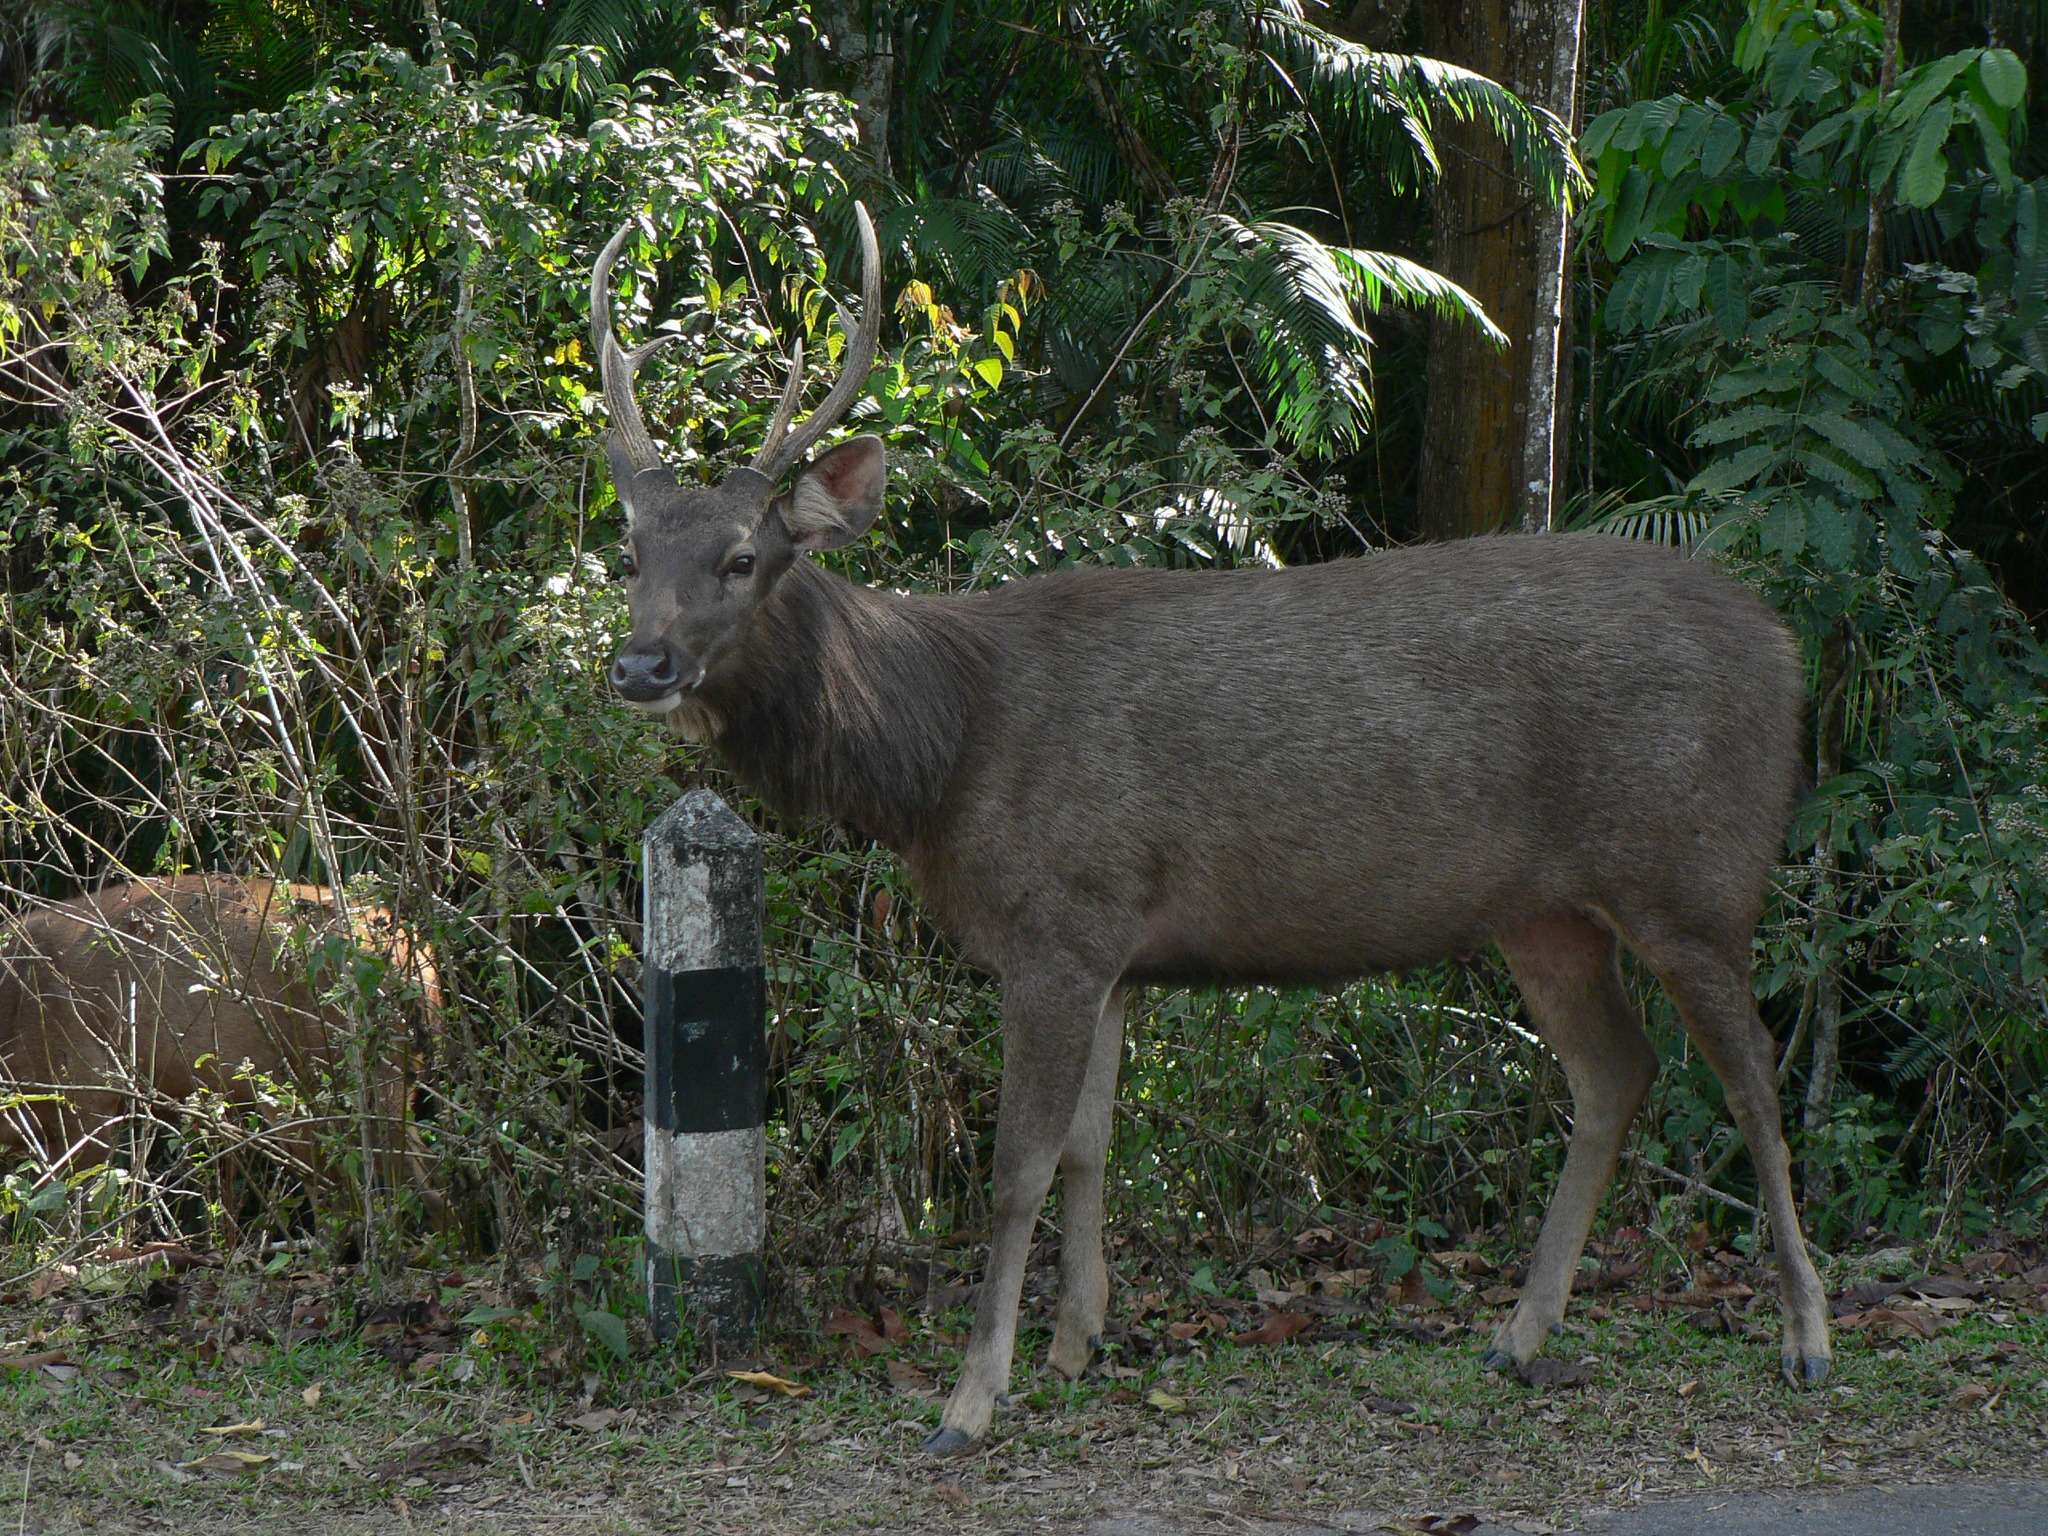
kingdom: Animalia
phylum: Chordata
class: Mammalia
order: Artiodactyla
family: Cervidae
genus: Rusa
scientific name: Rusa unicolor
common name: Sambar
